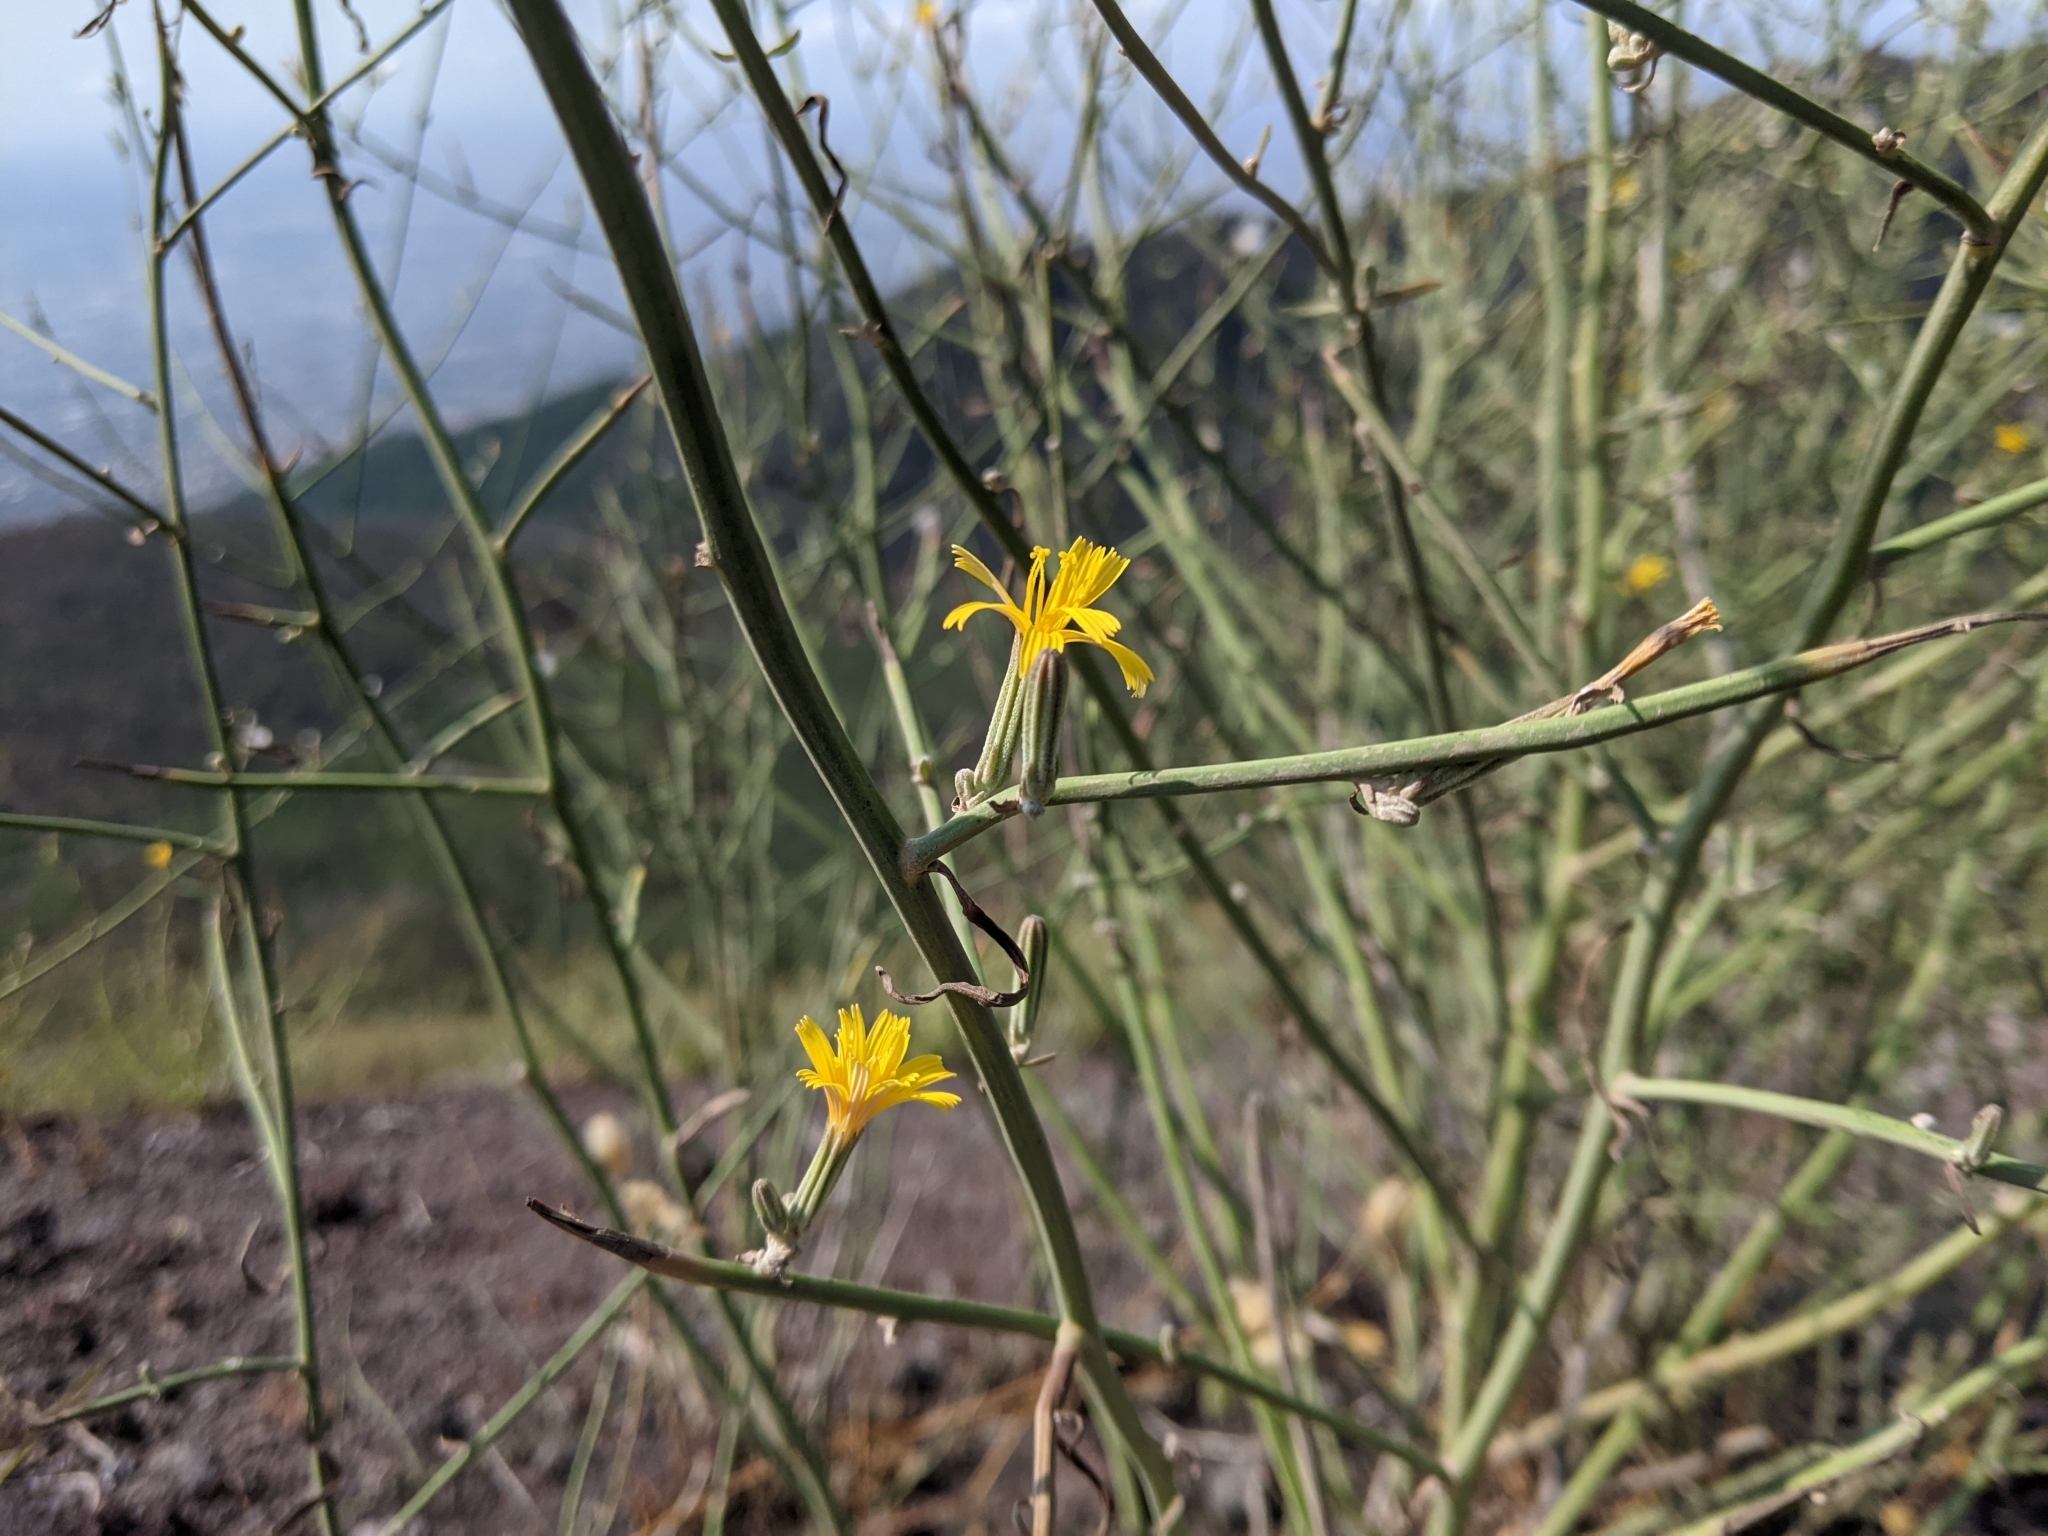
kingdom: Plantae
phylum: Tracheophyta
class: Magnoliopsida
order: Asterales
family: Asteraceae
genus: Chondrilla
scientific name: Chondrilla juncea
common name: Skeleton weed
